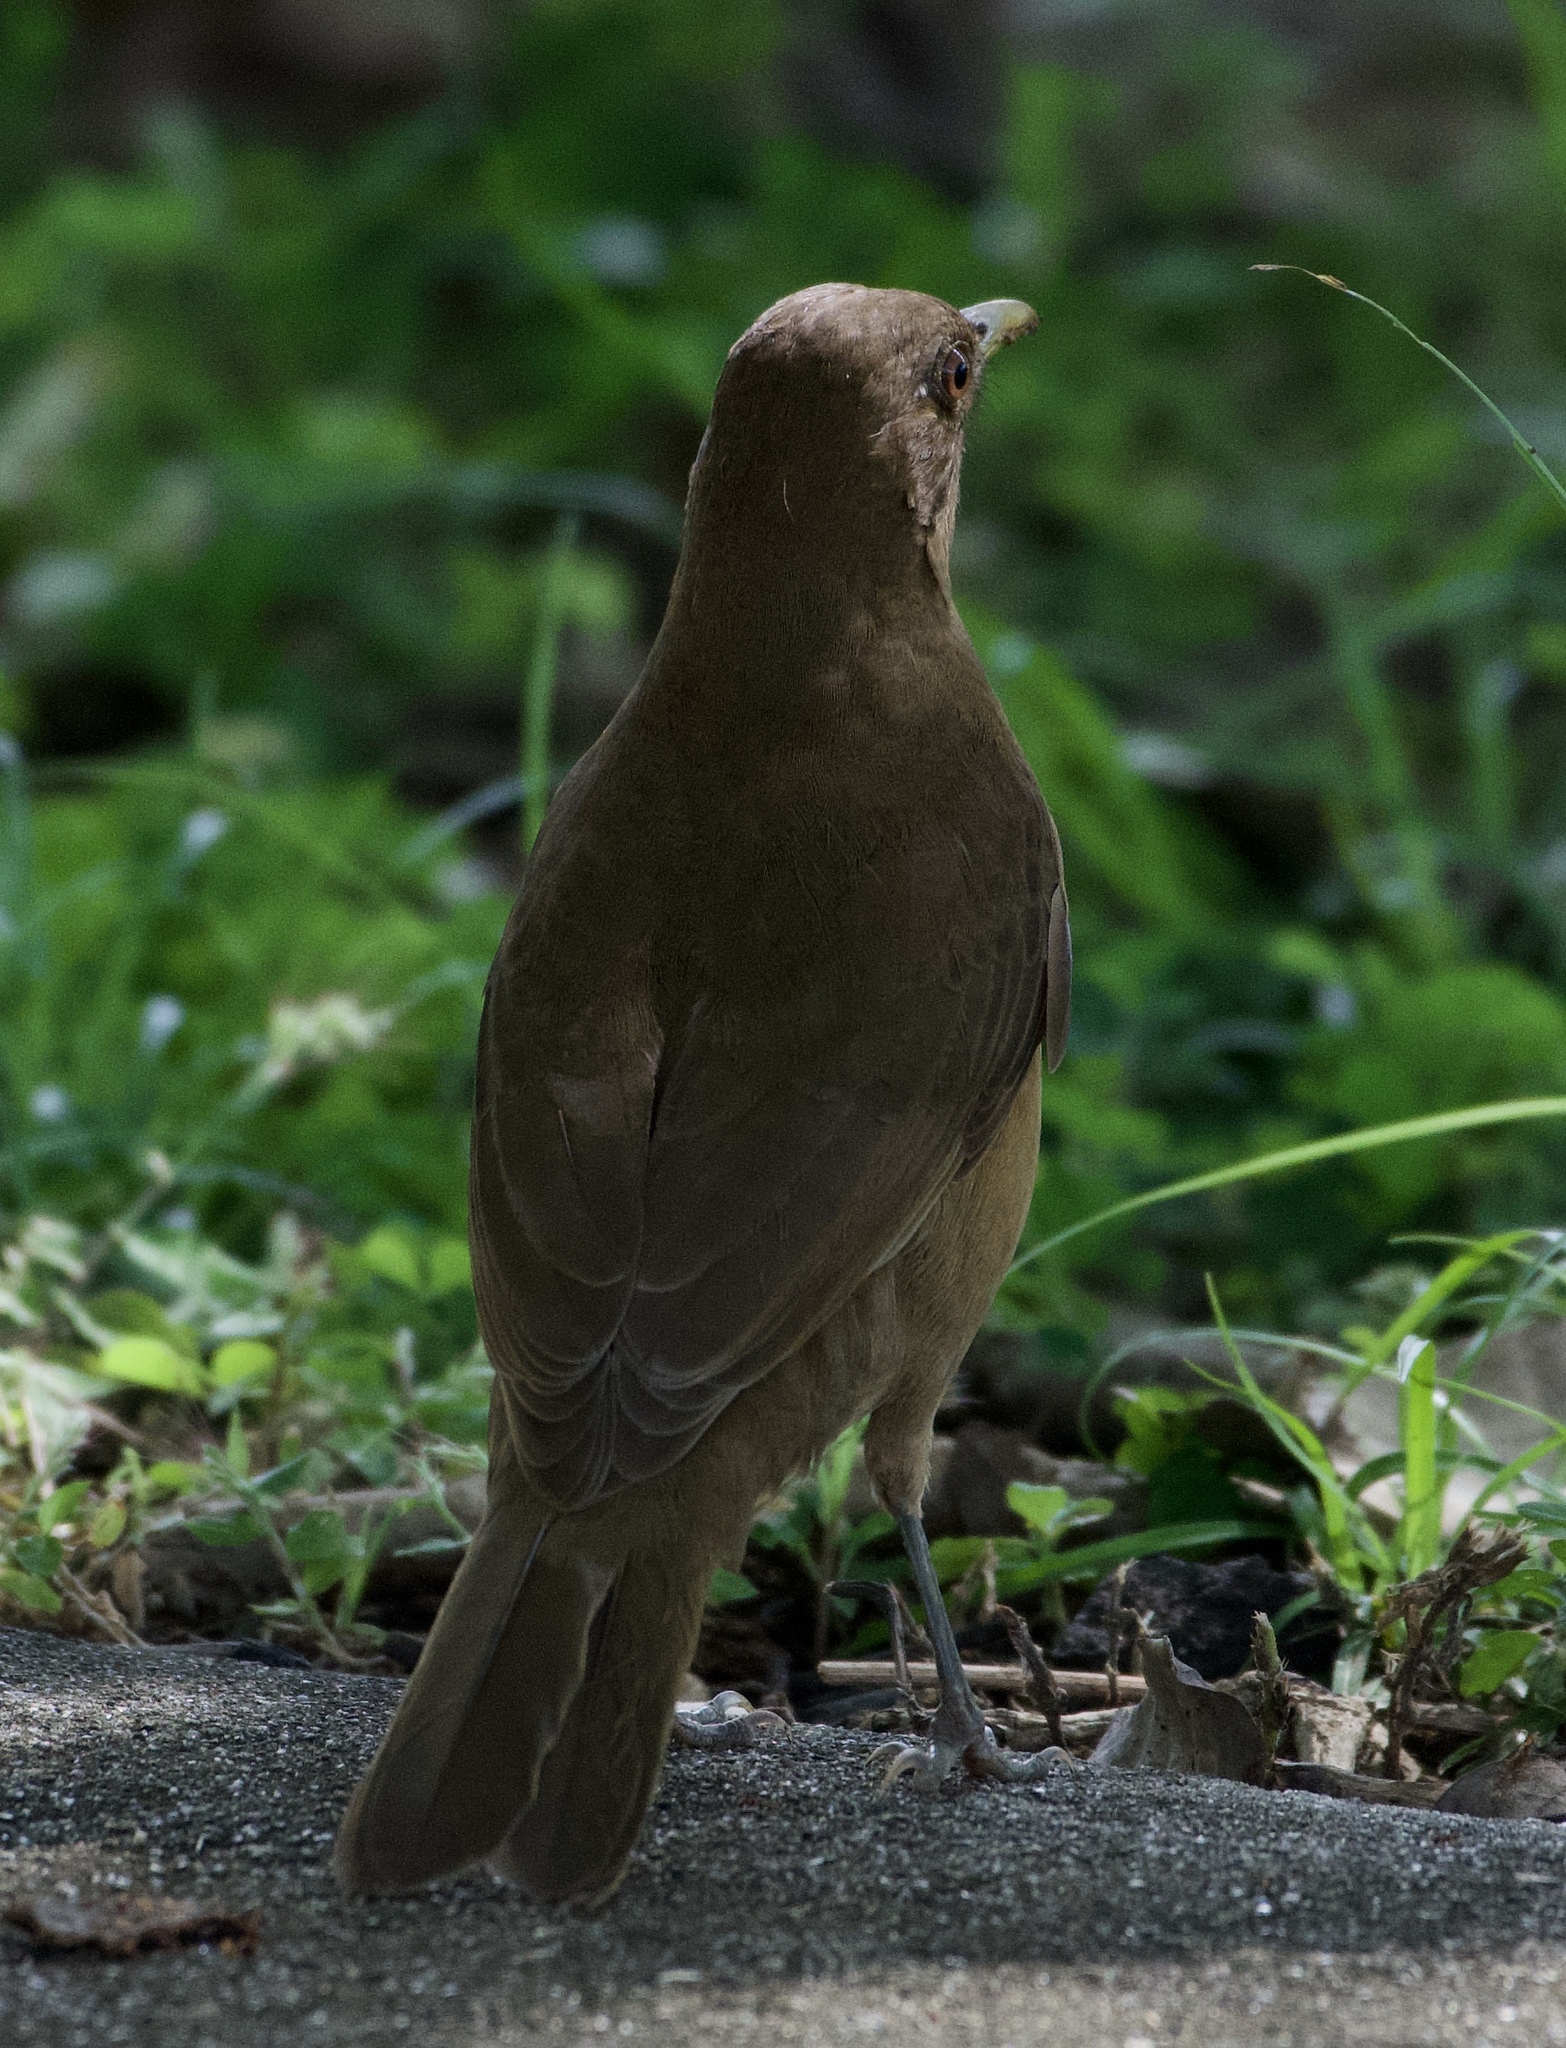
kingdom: Animalia
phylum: Chordata
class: Aves
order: Passeriformes
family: Turdidae
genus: Turdus
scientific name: Turdus grayi
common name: Clay-colored thrush
